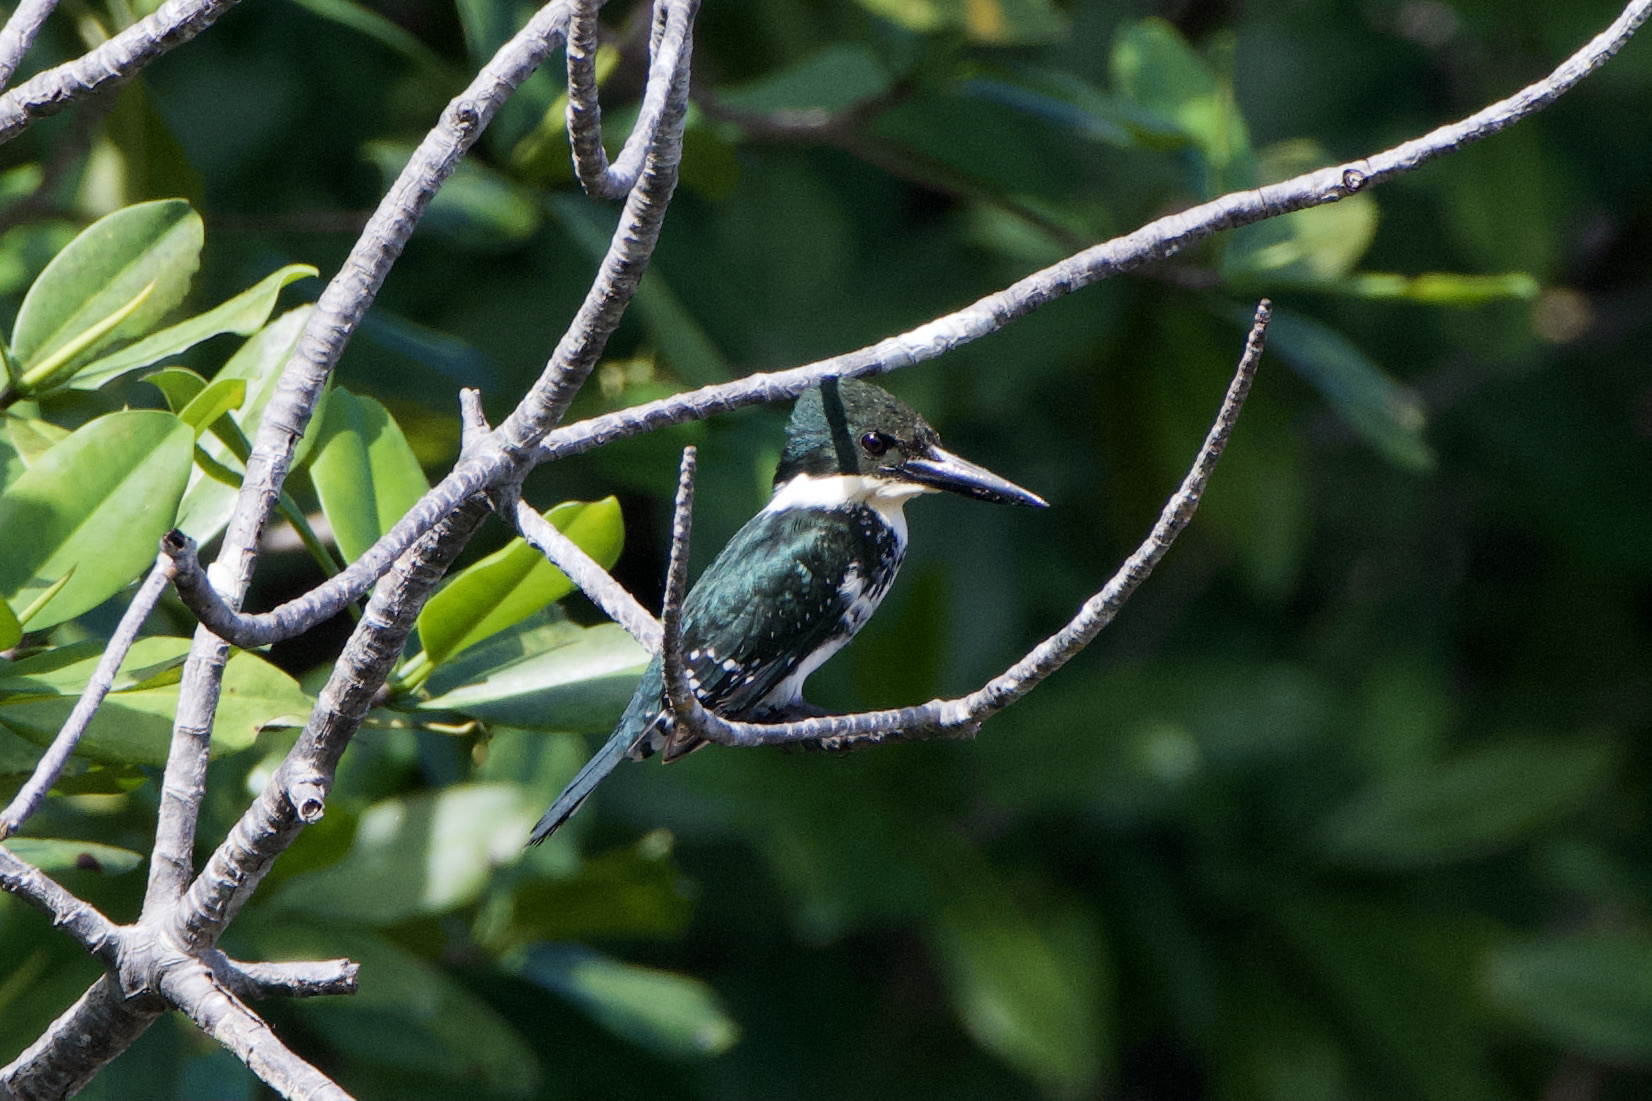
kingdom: Animalia
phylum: Chordata
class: Aves
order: Coraciiformes
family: Alcedinidae
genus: Chloroceryle
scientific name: Chloroceryle americana
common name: Green kingfisher
